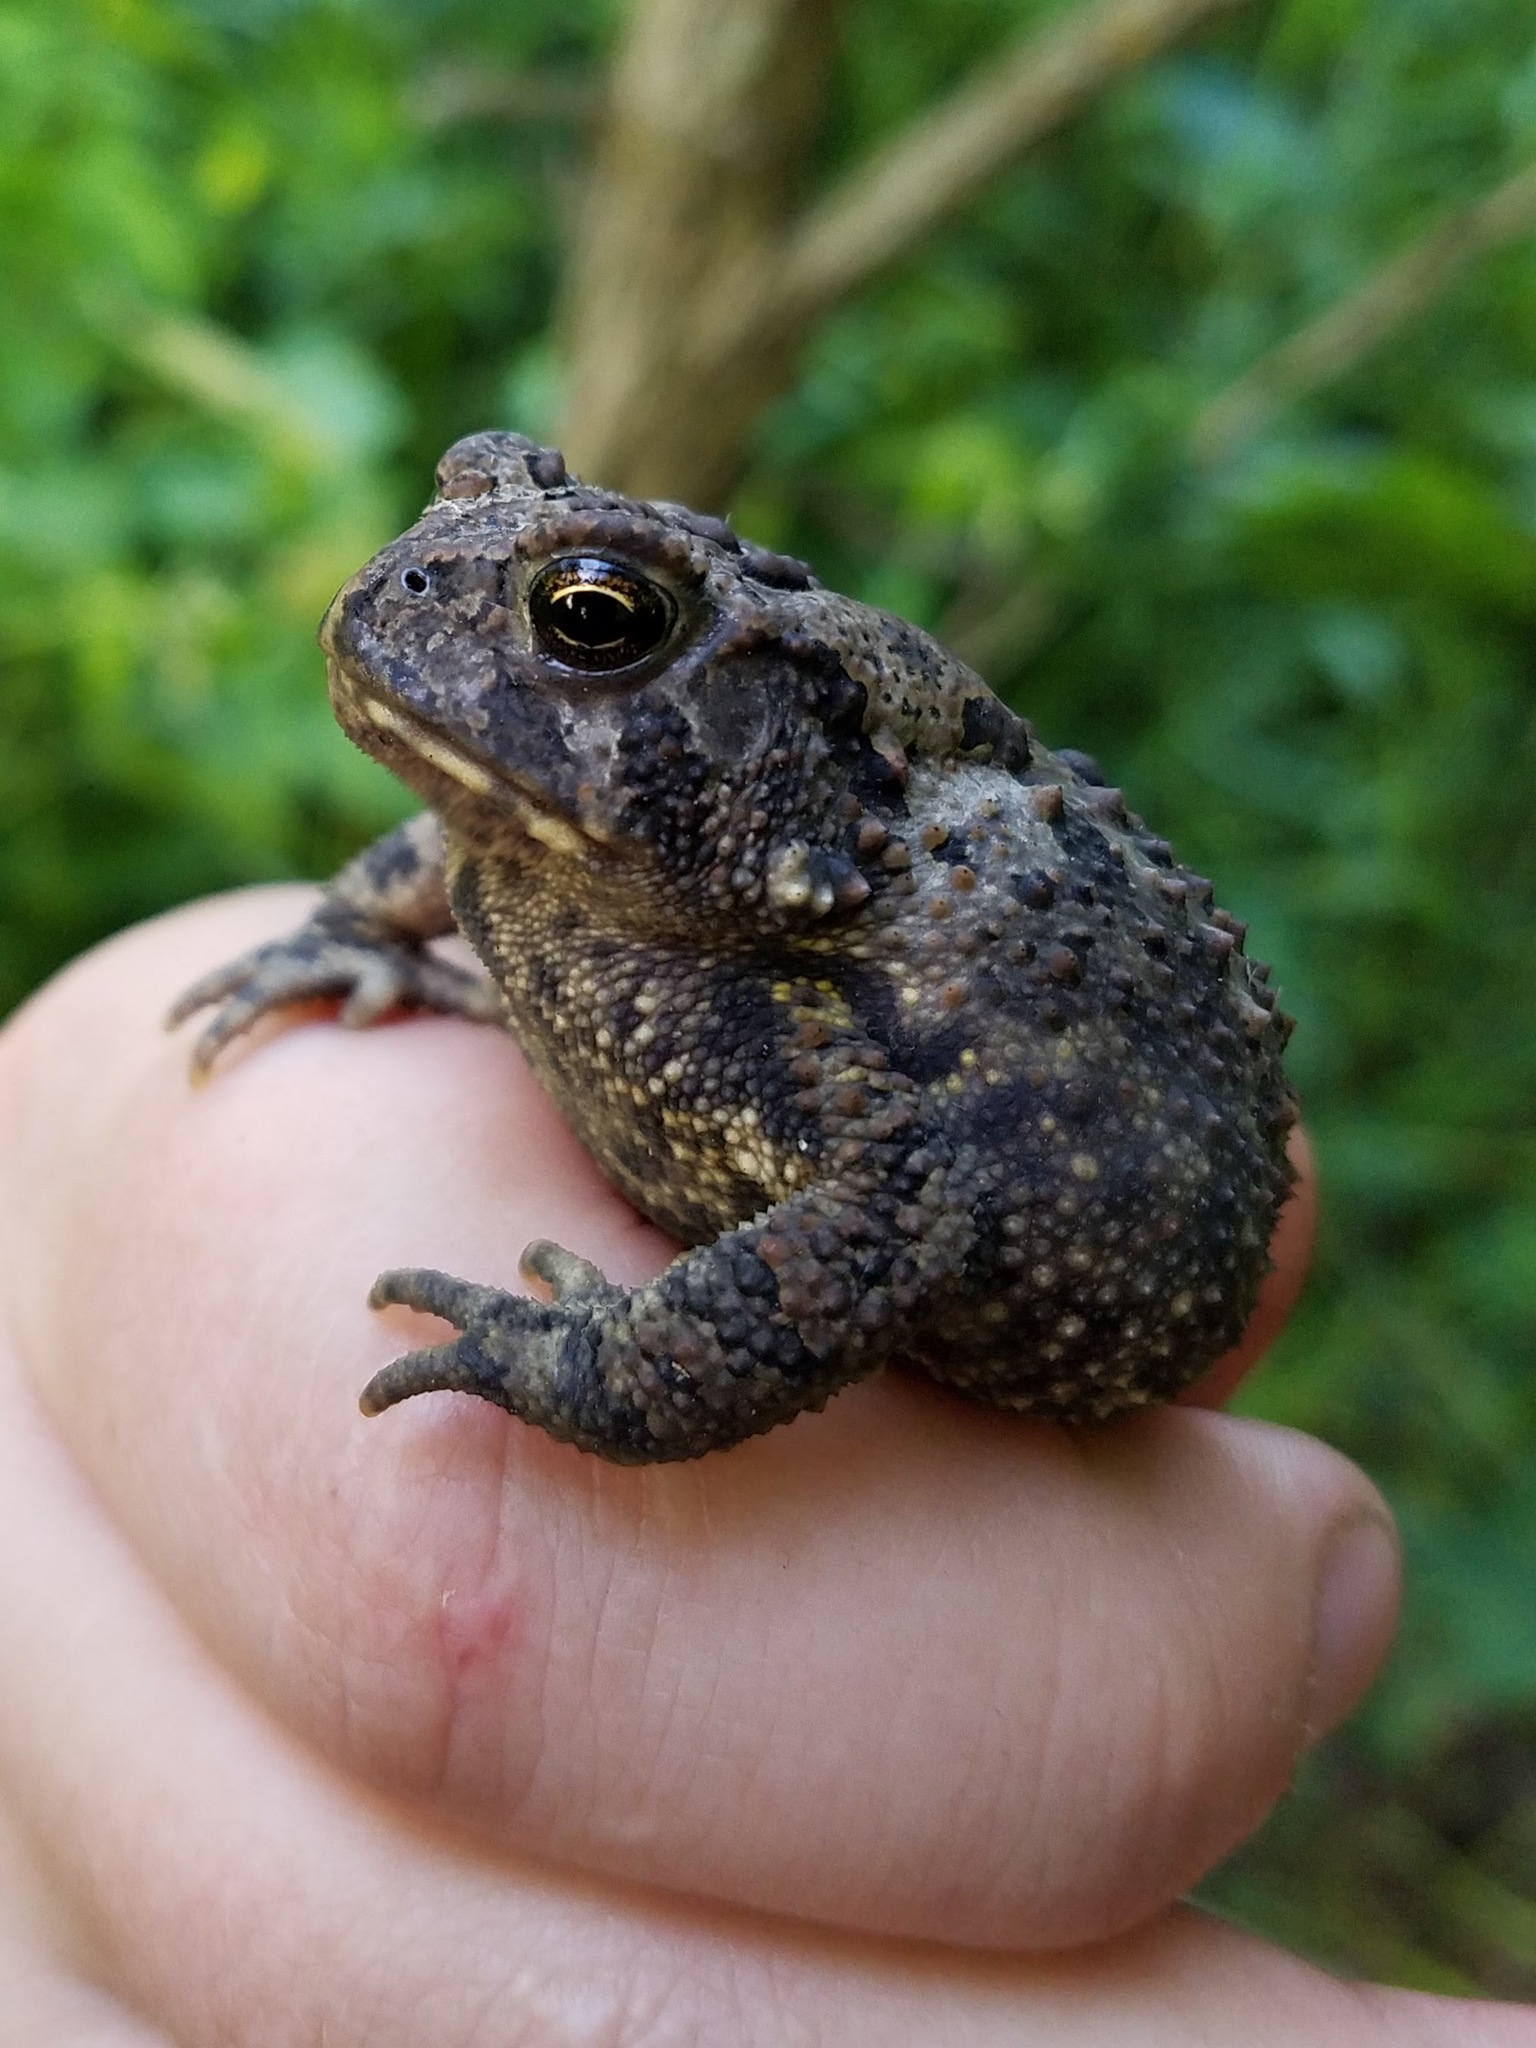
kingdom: Animalia
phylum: Chordata
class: Amphibia
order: Anura
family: Bufonidae
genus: Anaxyrus
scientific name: Anaxyrus americanus
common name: American toad
